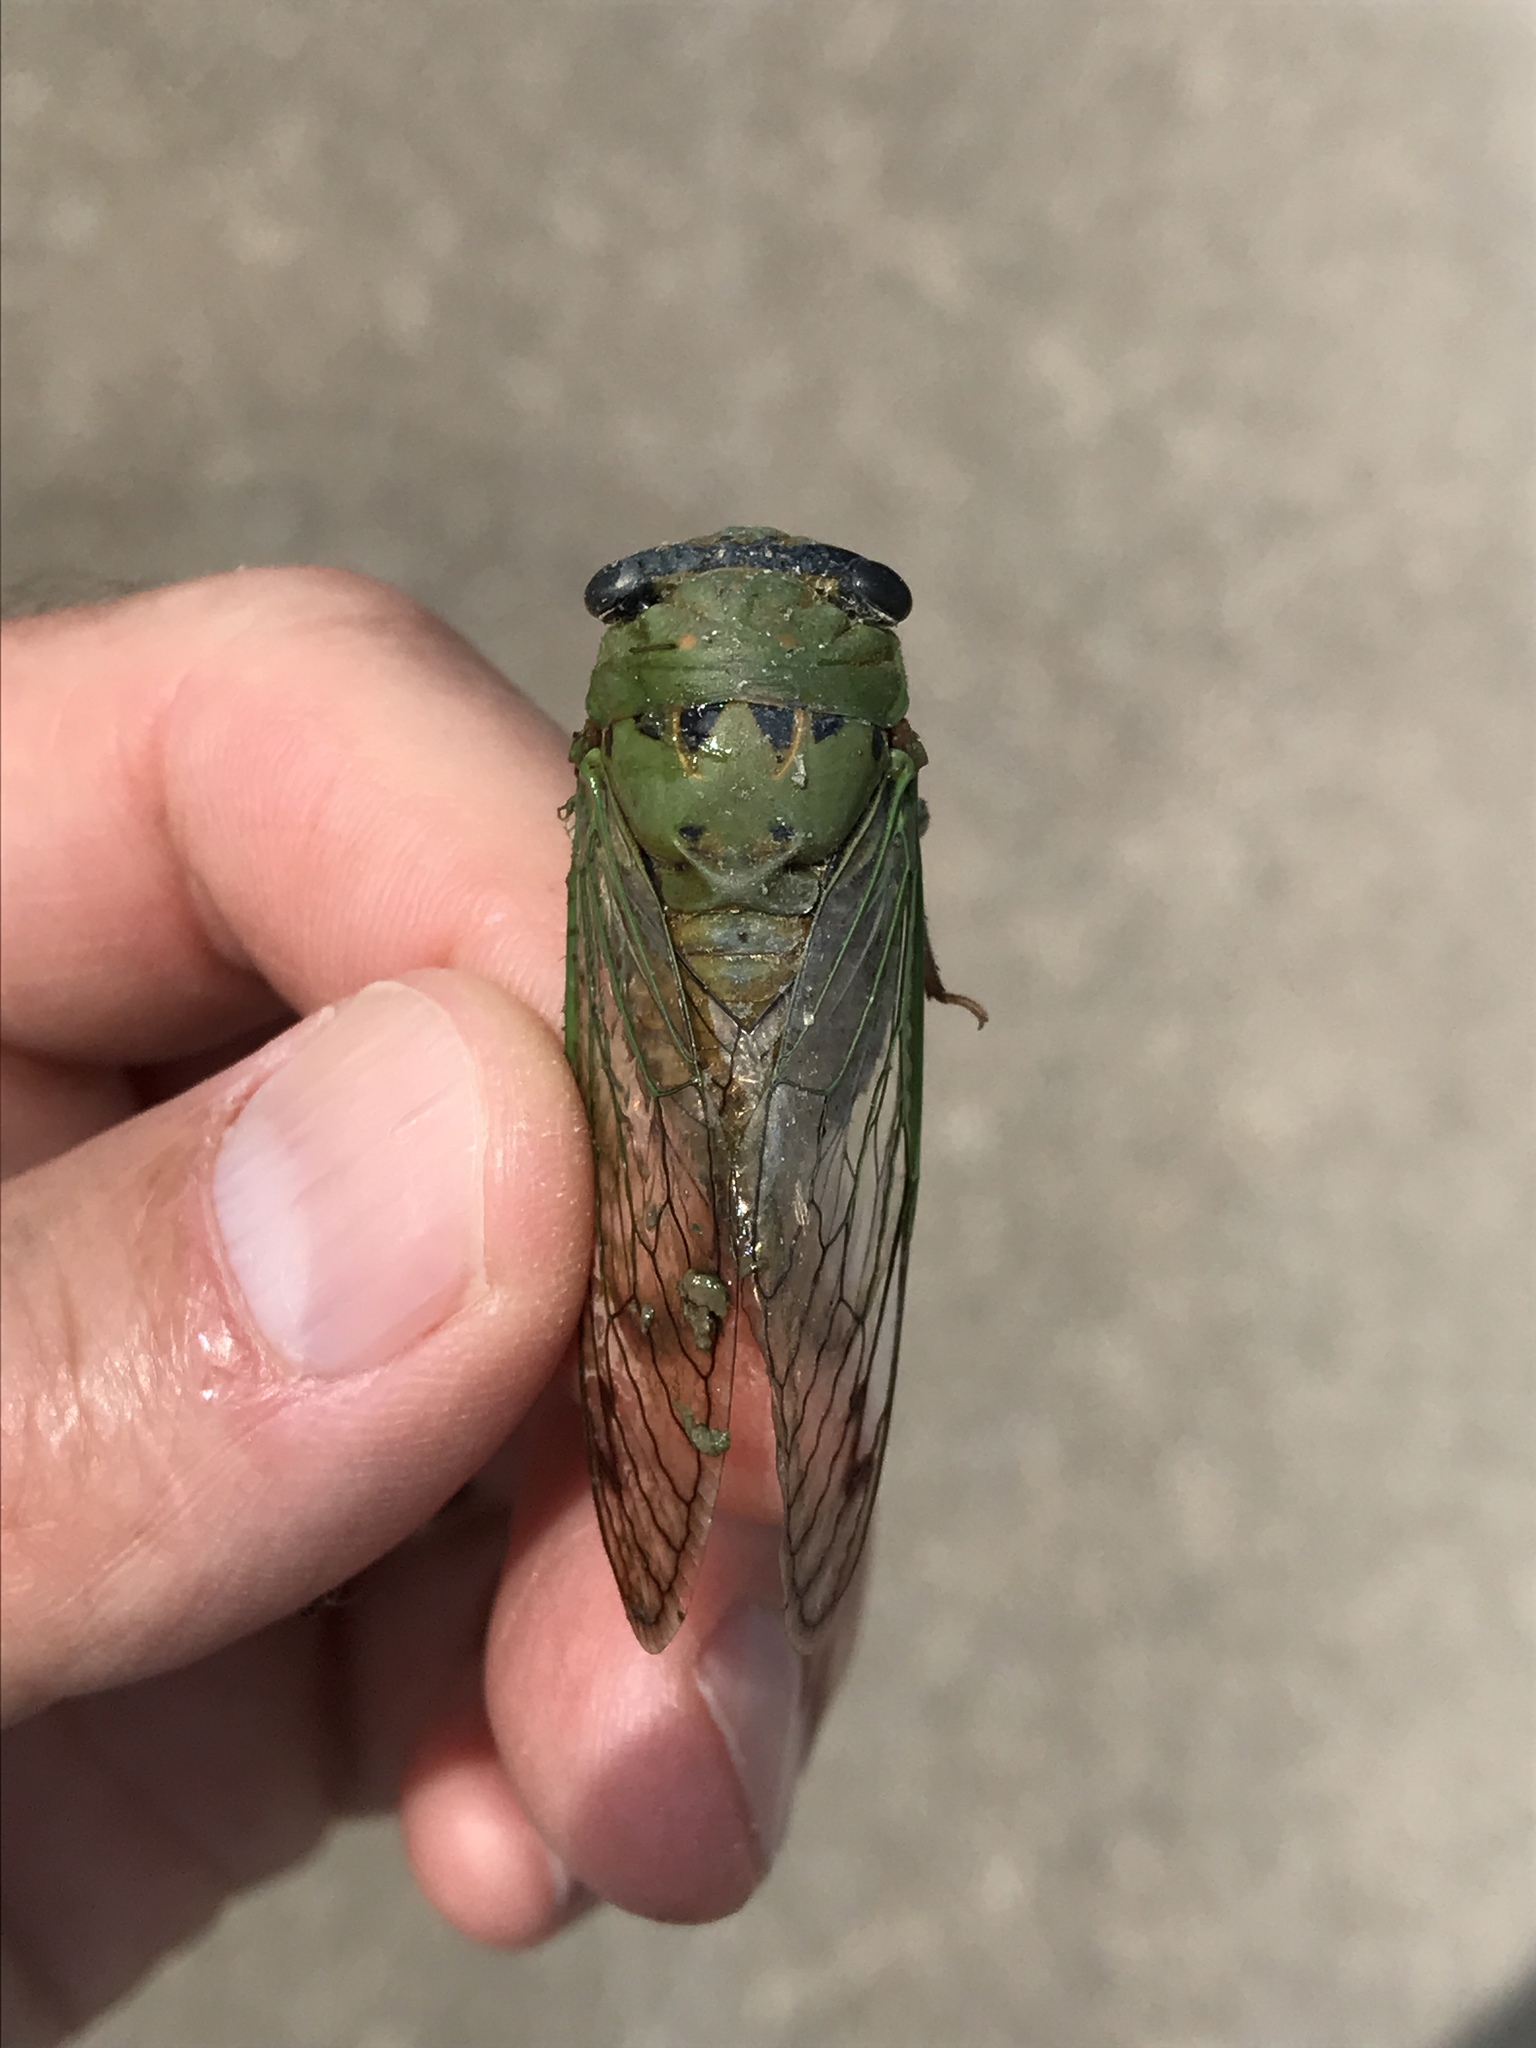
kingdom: Animalia
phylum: Arthropoda
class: Insecta
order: Hemiptera
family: Cicadidae
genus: Neotibicen
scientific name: Neotibicen superbus
